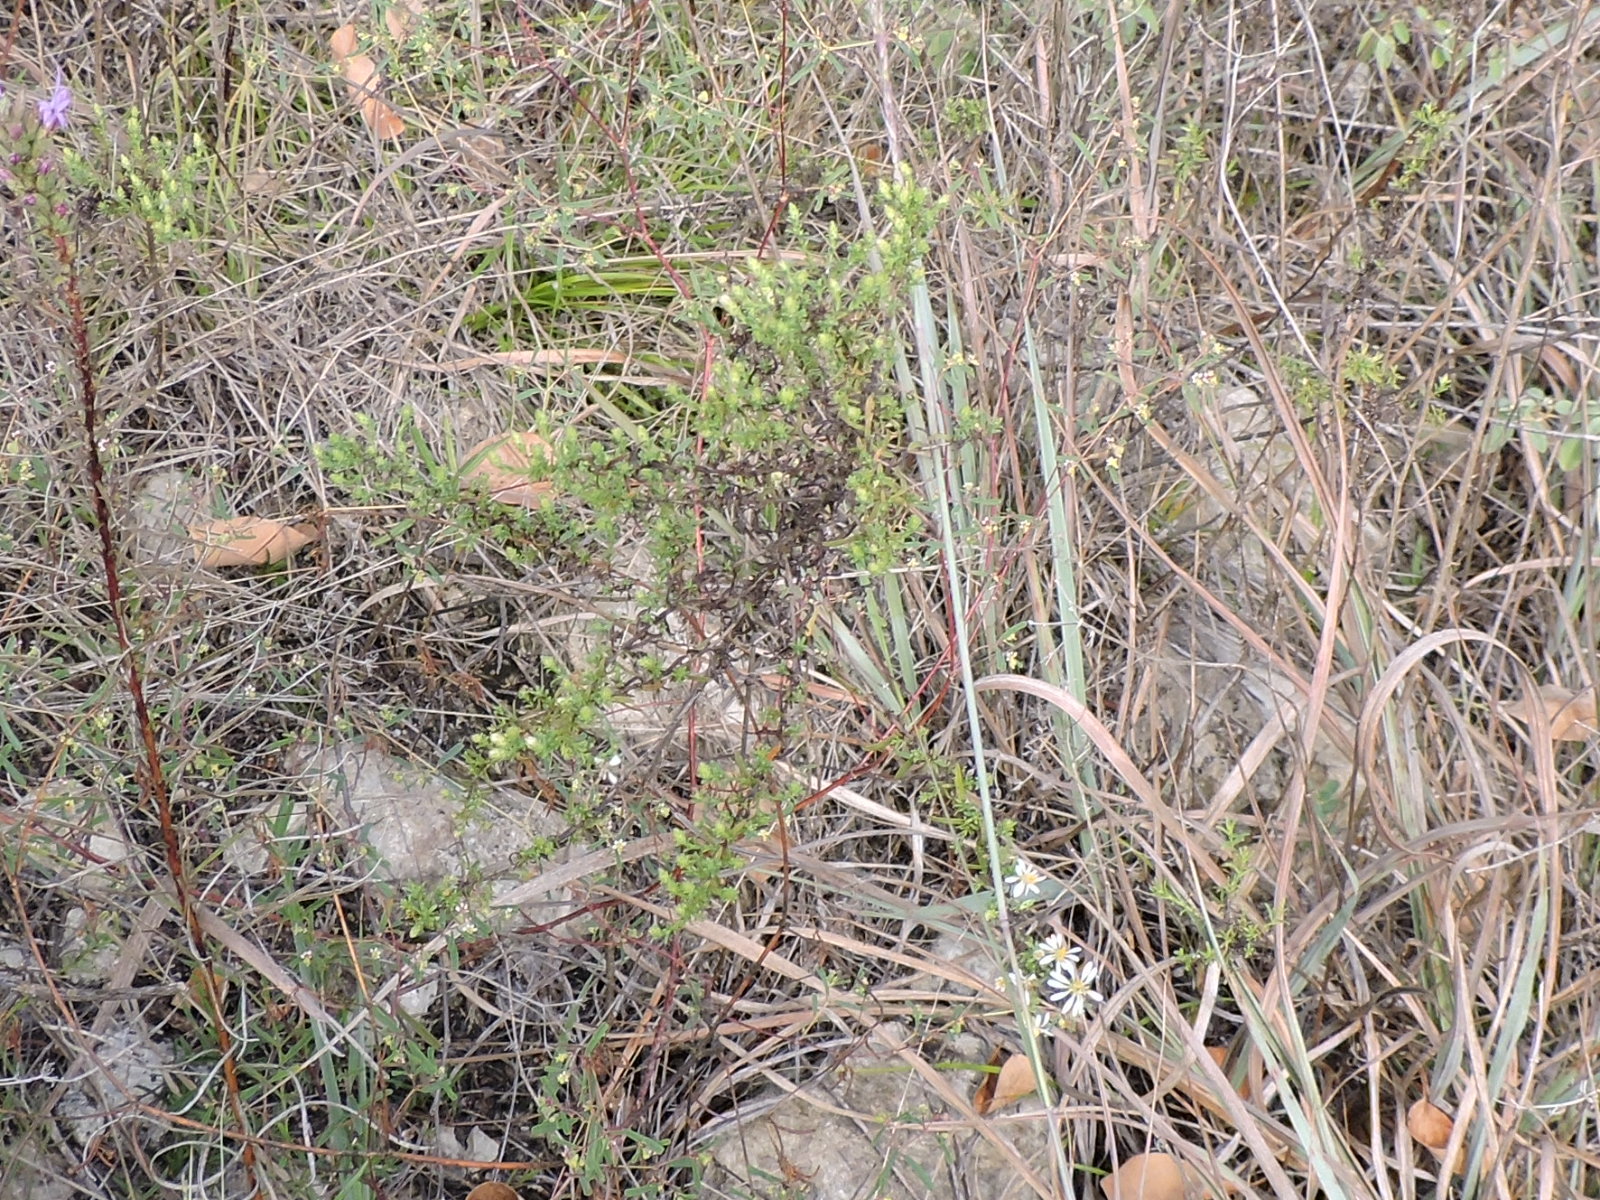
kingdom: Plantae
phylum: Tracheophyta
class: Magnoliopsida
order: Asterales
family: Asteraceae
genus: Symphyotrichum
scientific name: Symphyotrichum ericoides
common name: Heath aster
